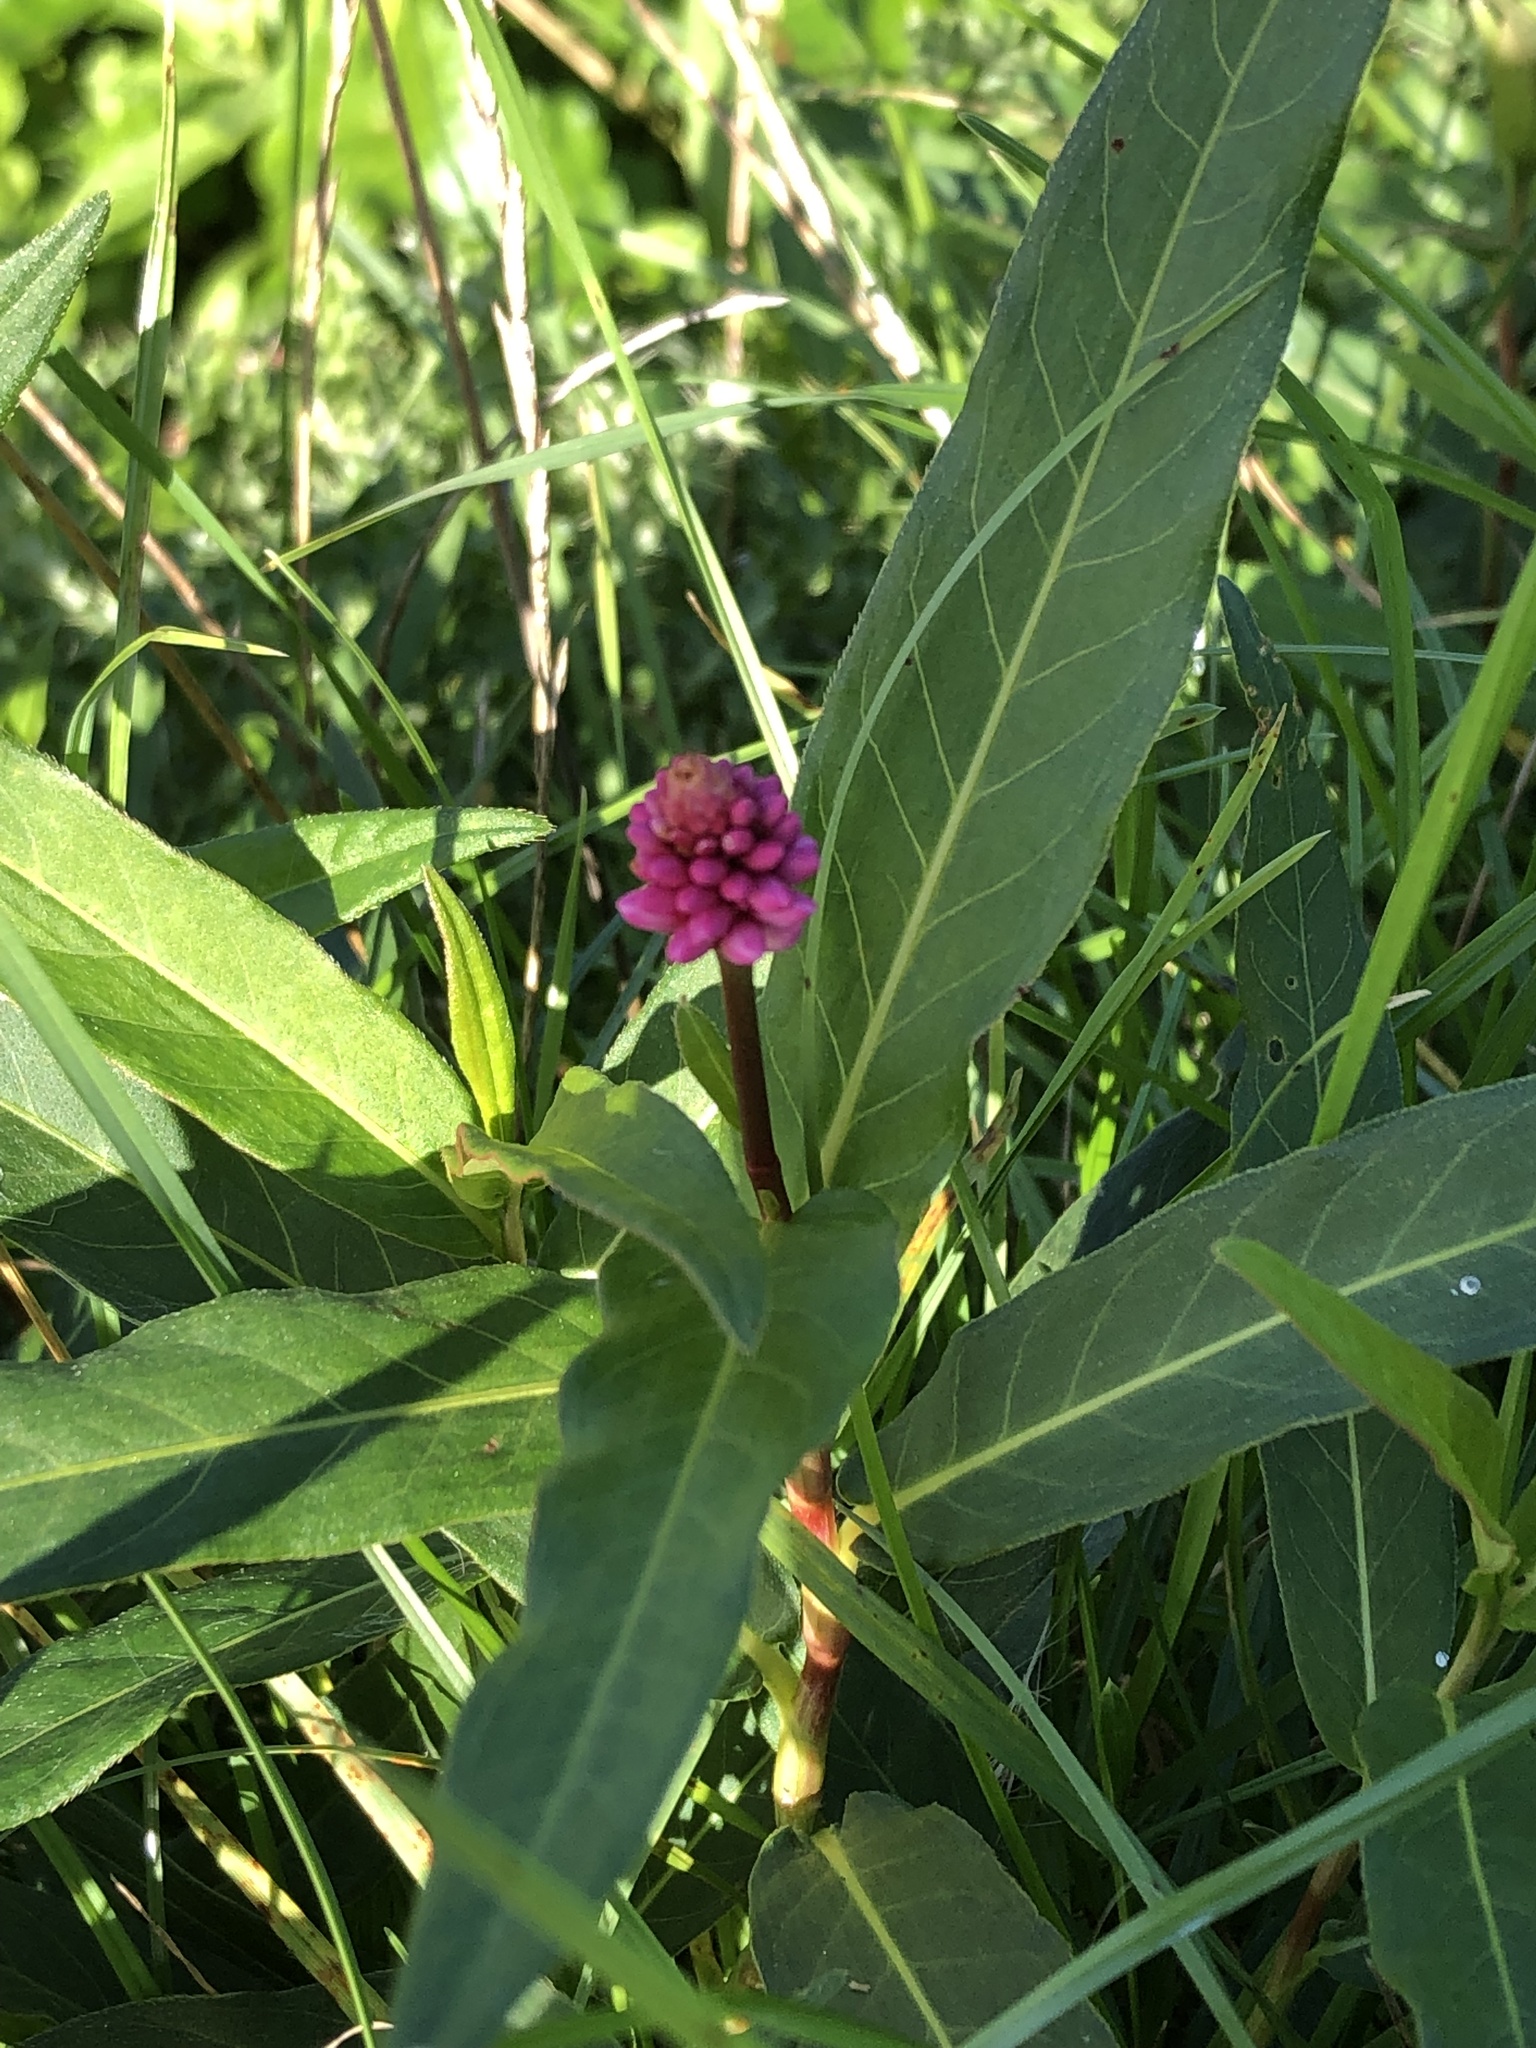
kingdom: Plantae
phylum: Tracheophyta
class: Magnoliopsida
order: Caryophyllales
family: Polygonaceae
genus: Persicaria
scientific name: Persicaria amphibia
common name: Amphibious bistort
